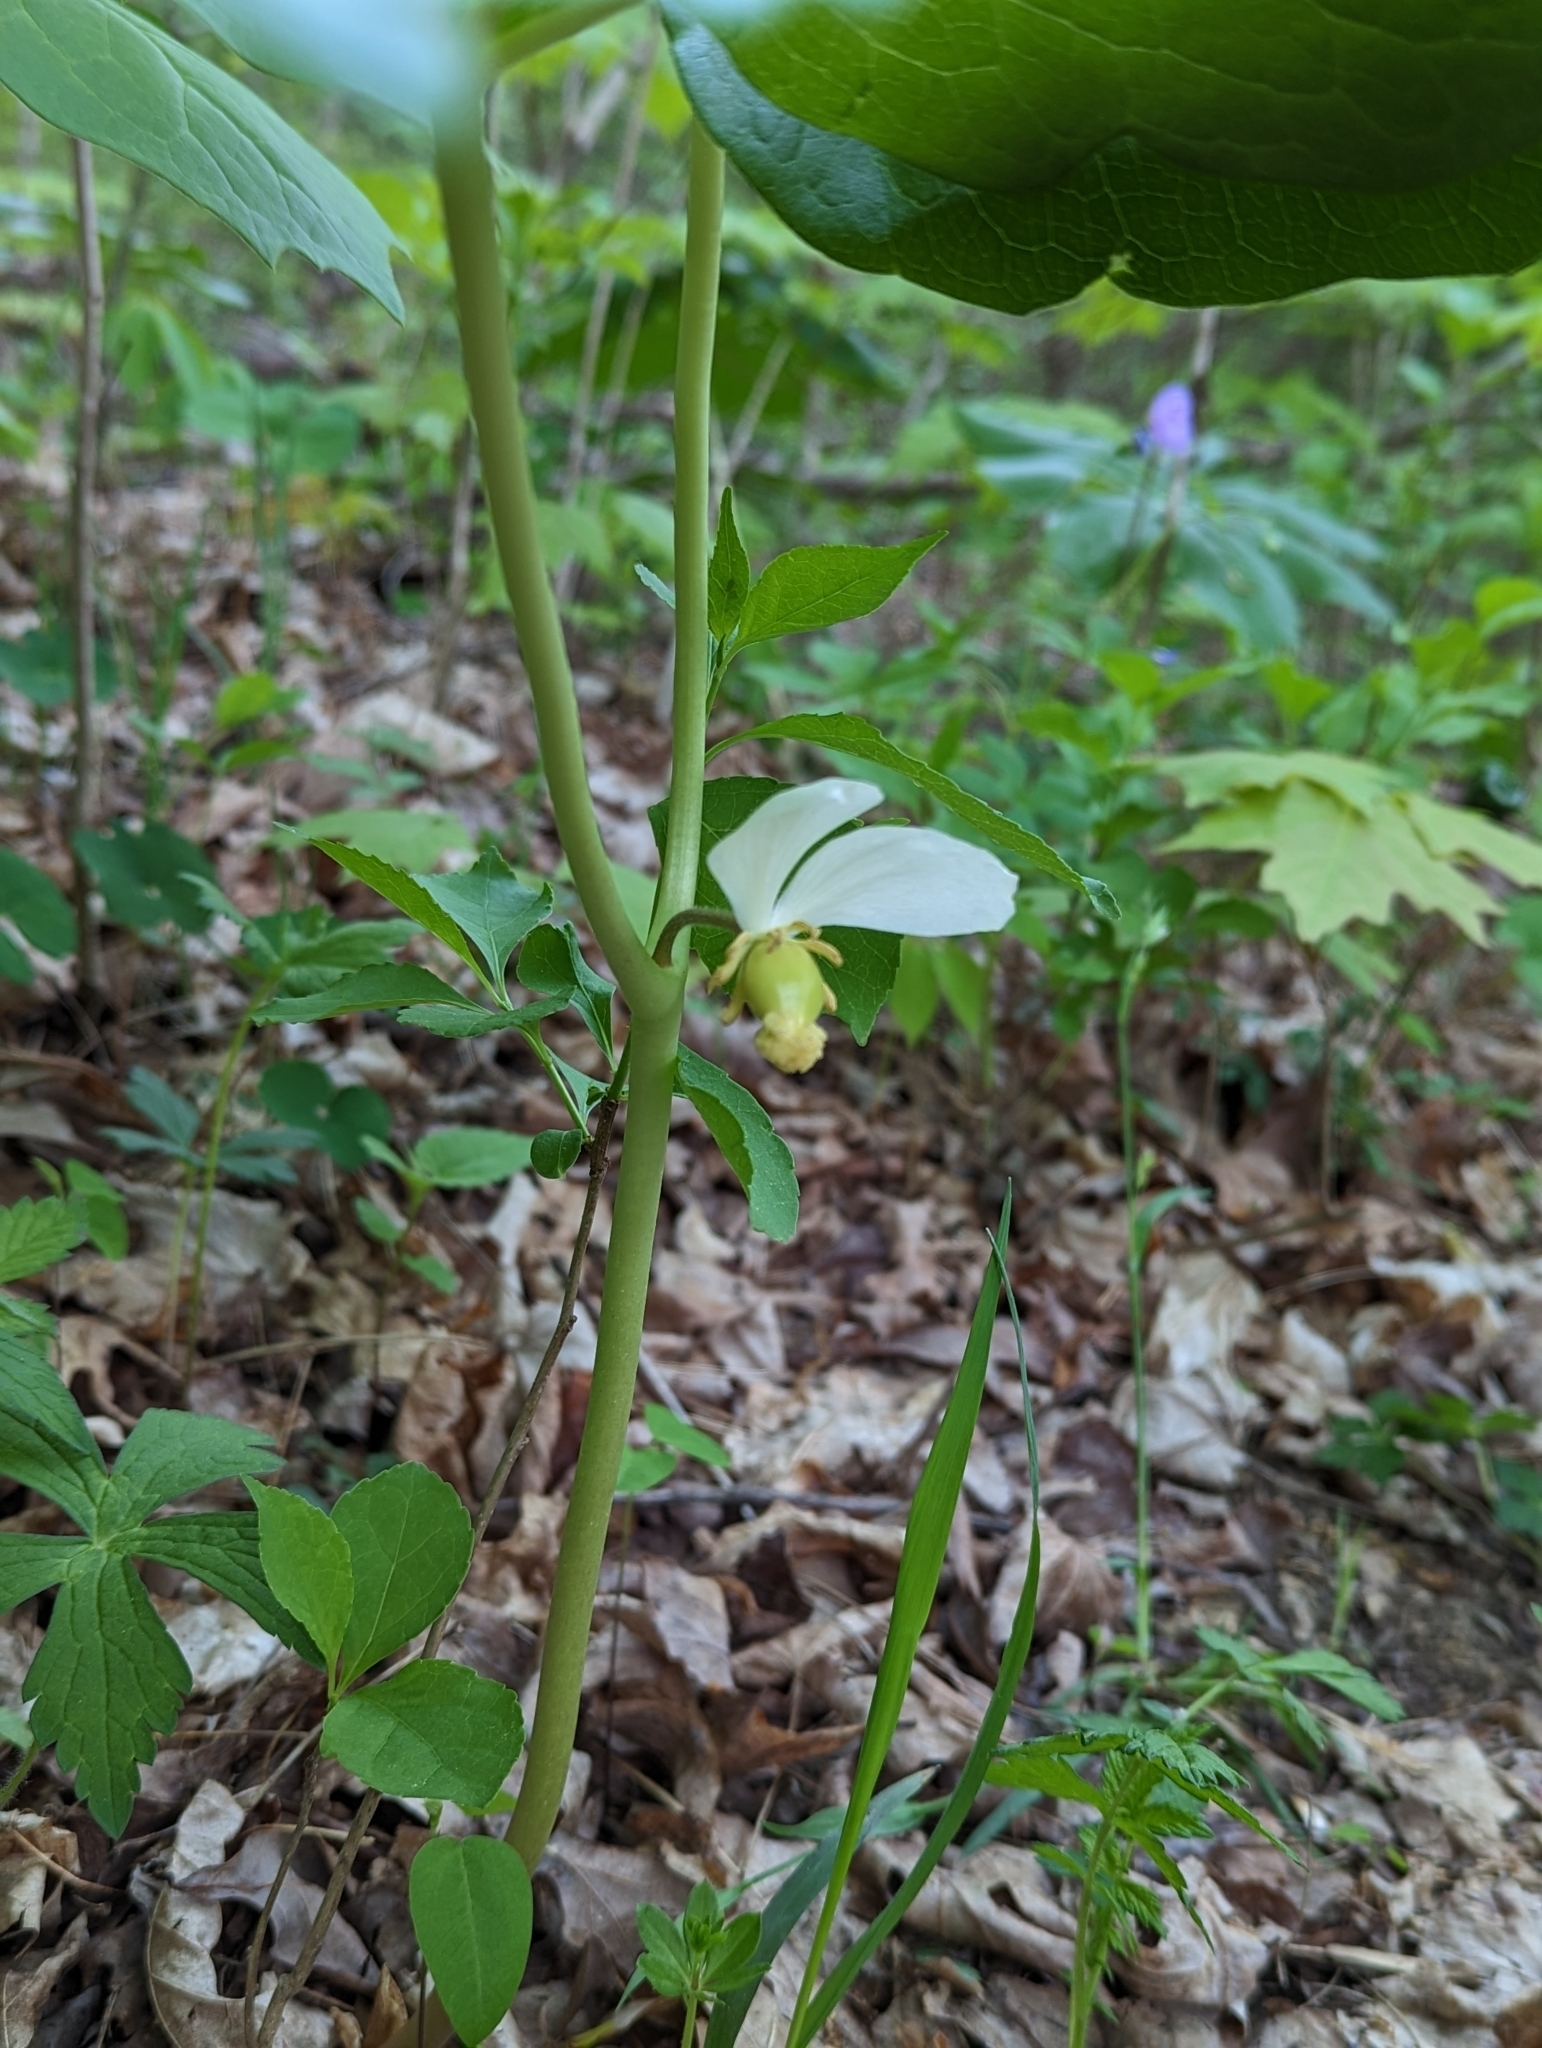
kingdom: Plantae
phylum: Tracheophyta
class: Magnoliopsida
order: Ranunculales
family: Berberidaceae
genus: Podophyllum
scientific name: Podophyllum peltatum
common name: Wild mandrake
